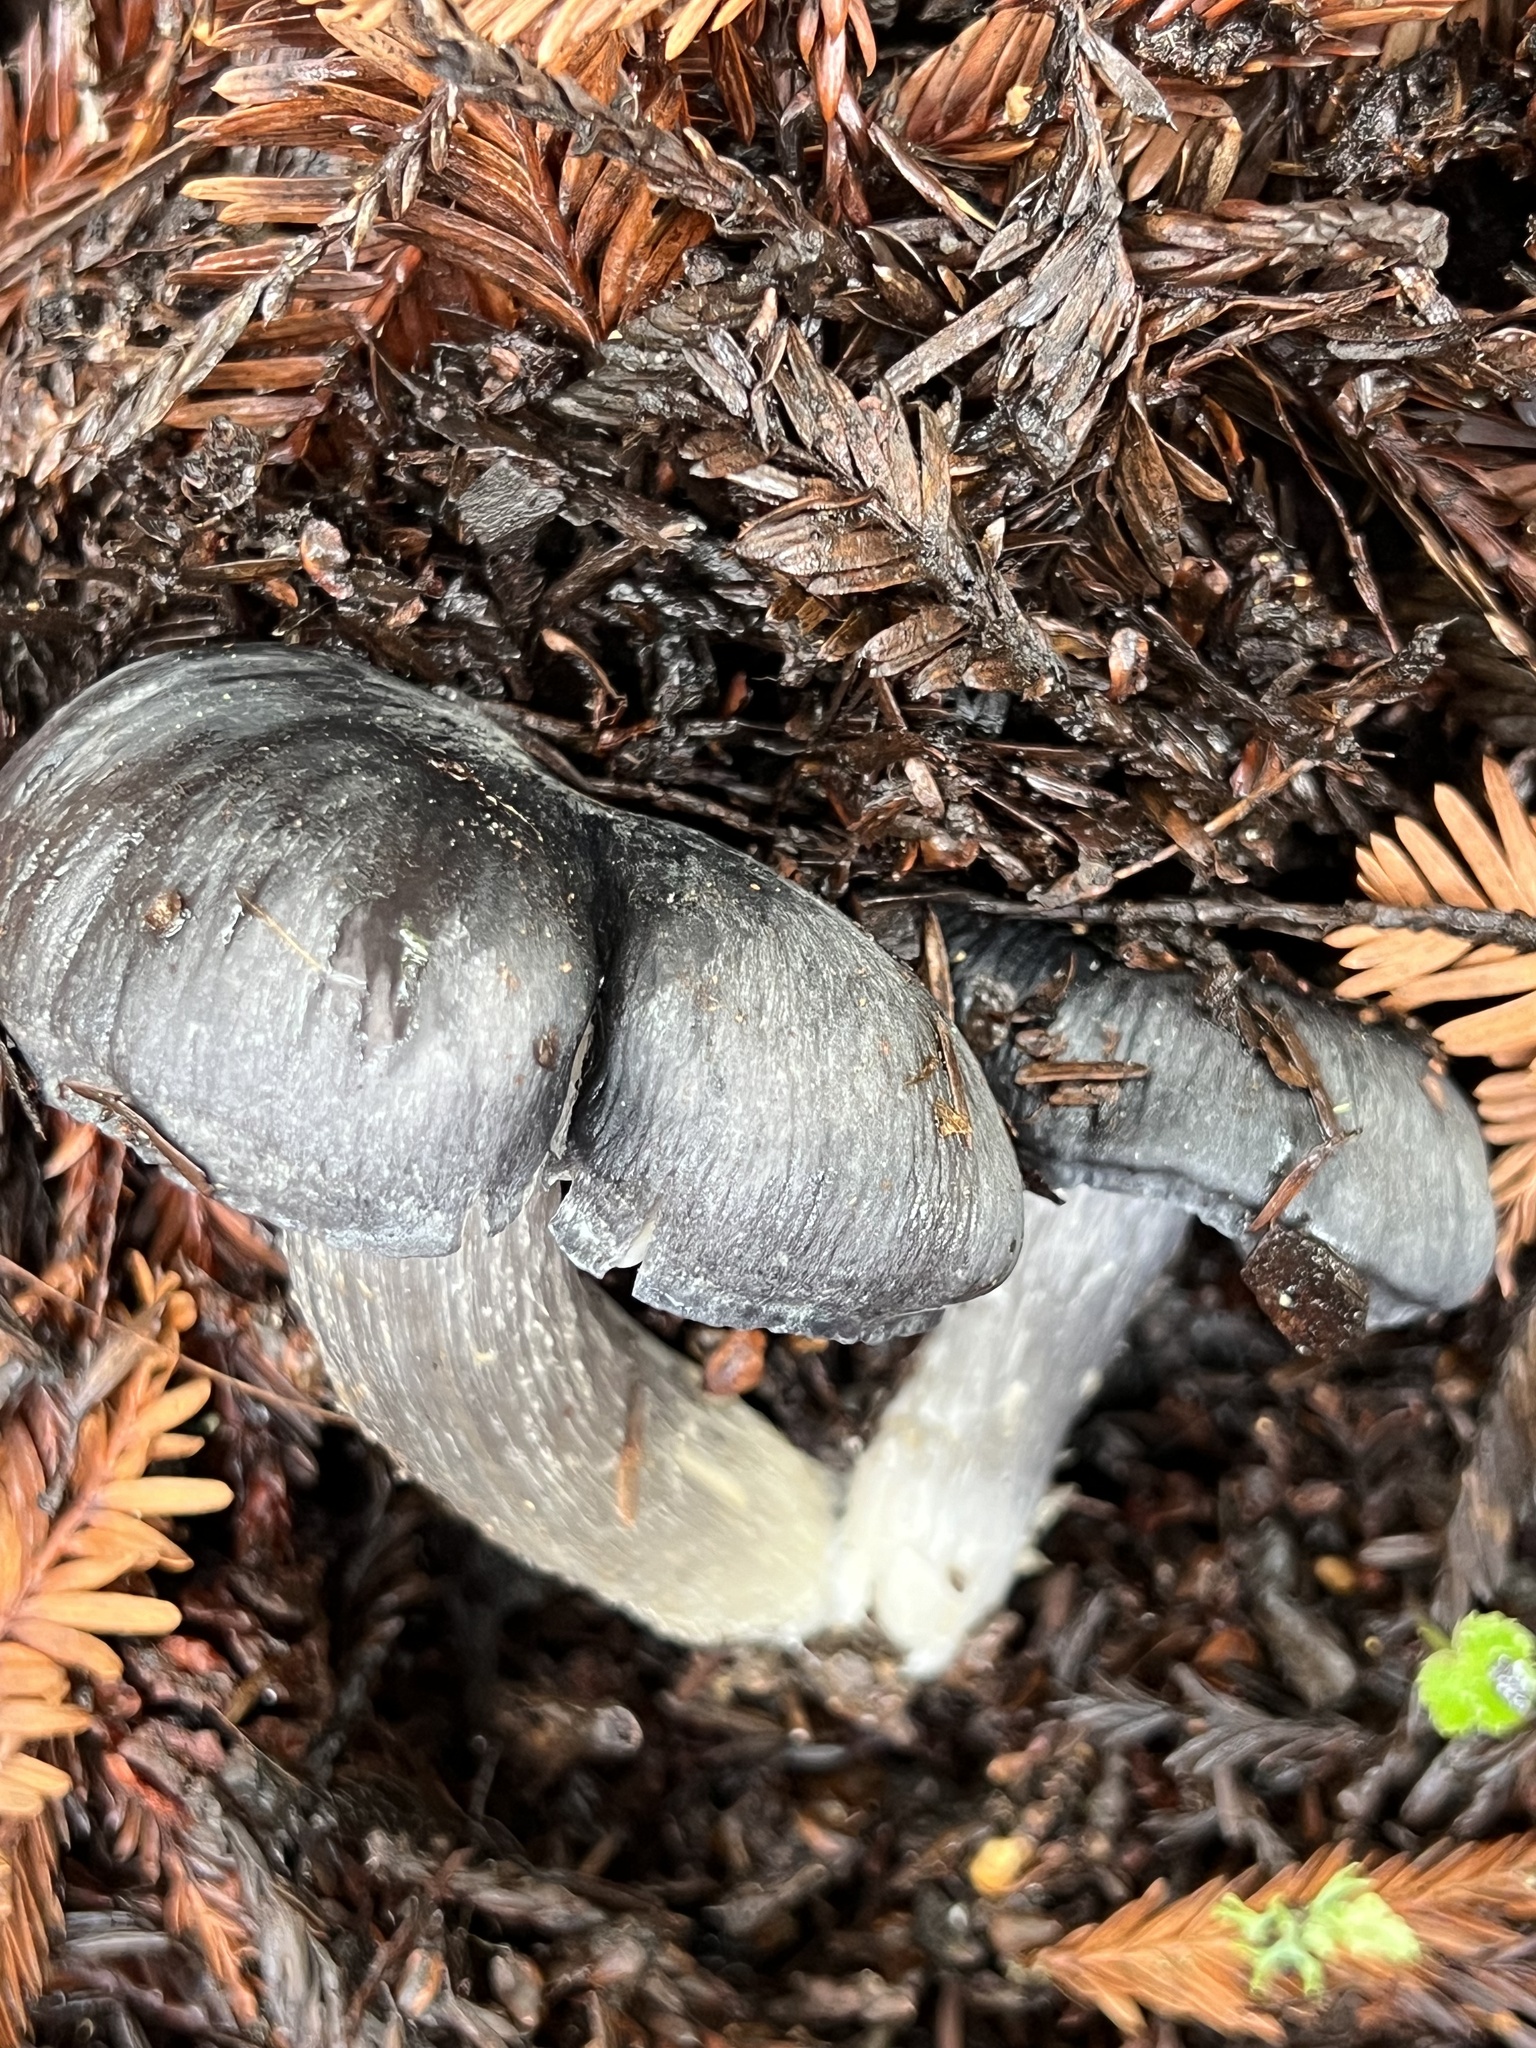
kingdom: Fungi
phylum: Basidiomycota
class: Agaricomycetes
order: Agaricales
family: Entolomataceae
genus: Entoloma
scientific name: Entoloma medianox
